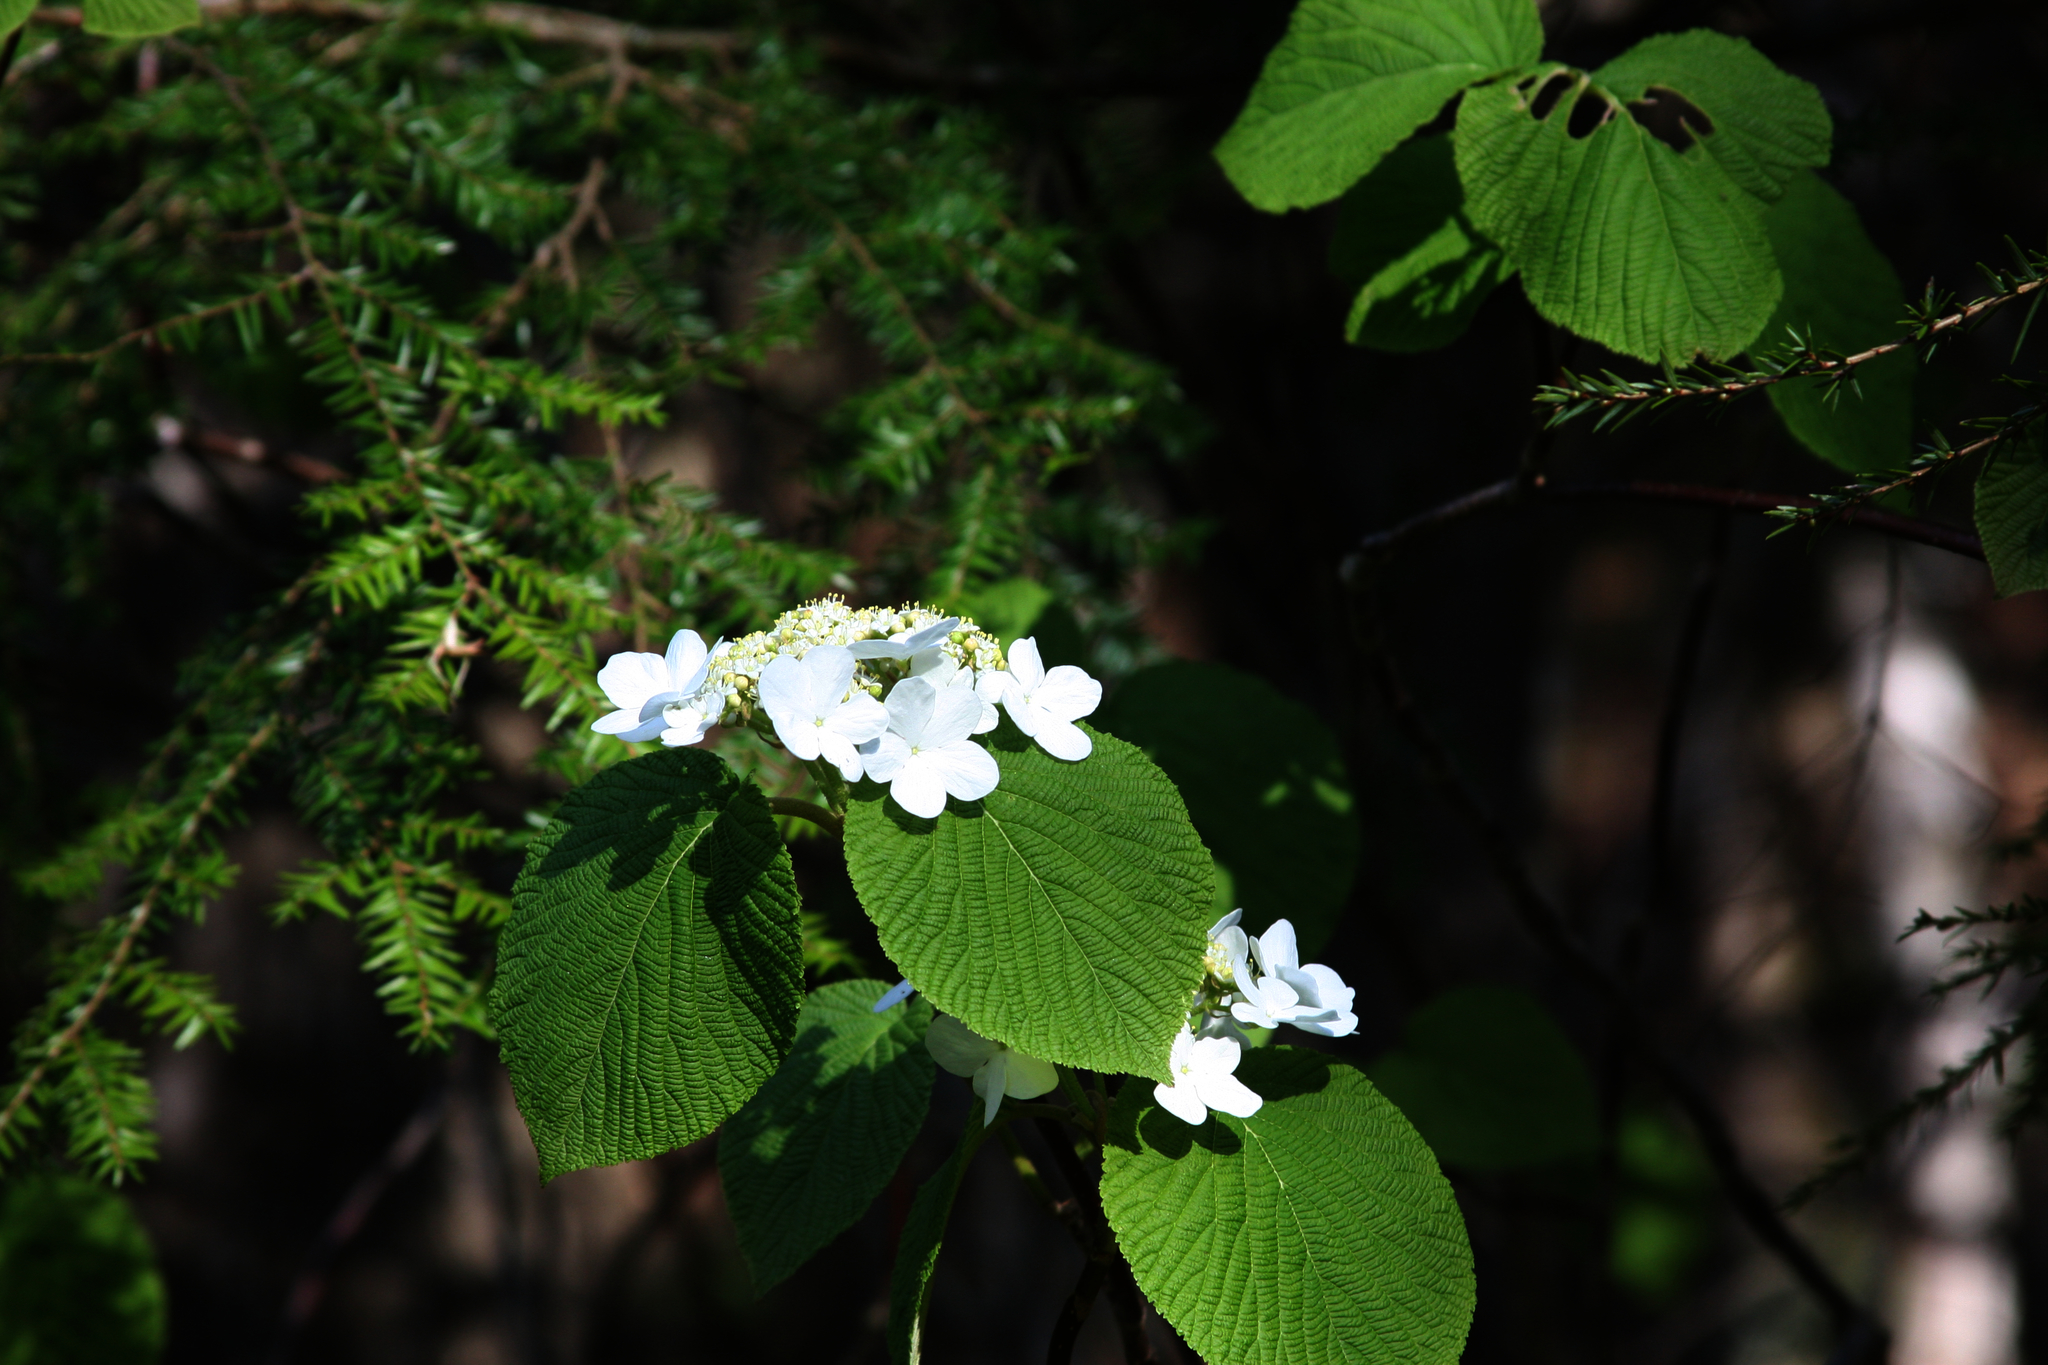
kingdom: Plantae
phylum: Tracheophyta
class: Magnoliopsida
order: Dipsacales
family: Viburnaceae
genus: Viburnum
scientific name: Viburnum lantanoides
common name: Hobblebush
